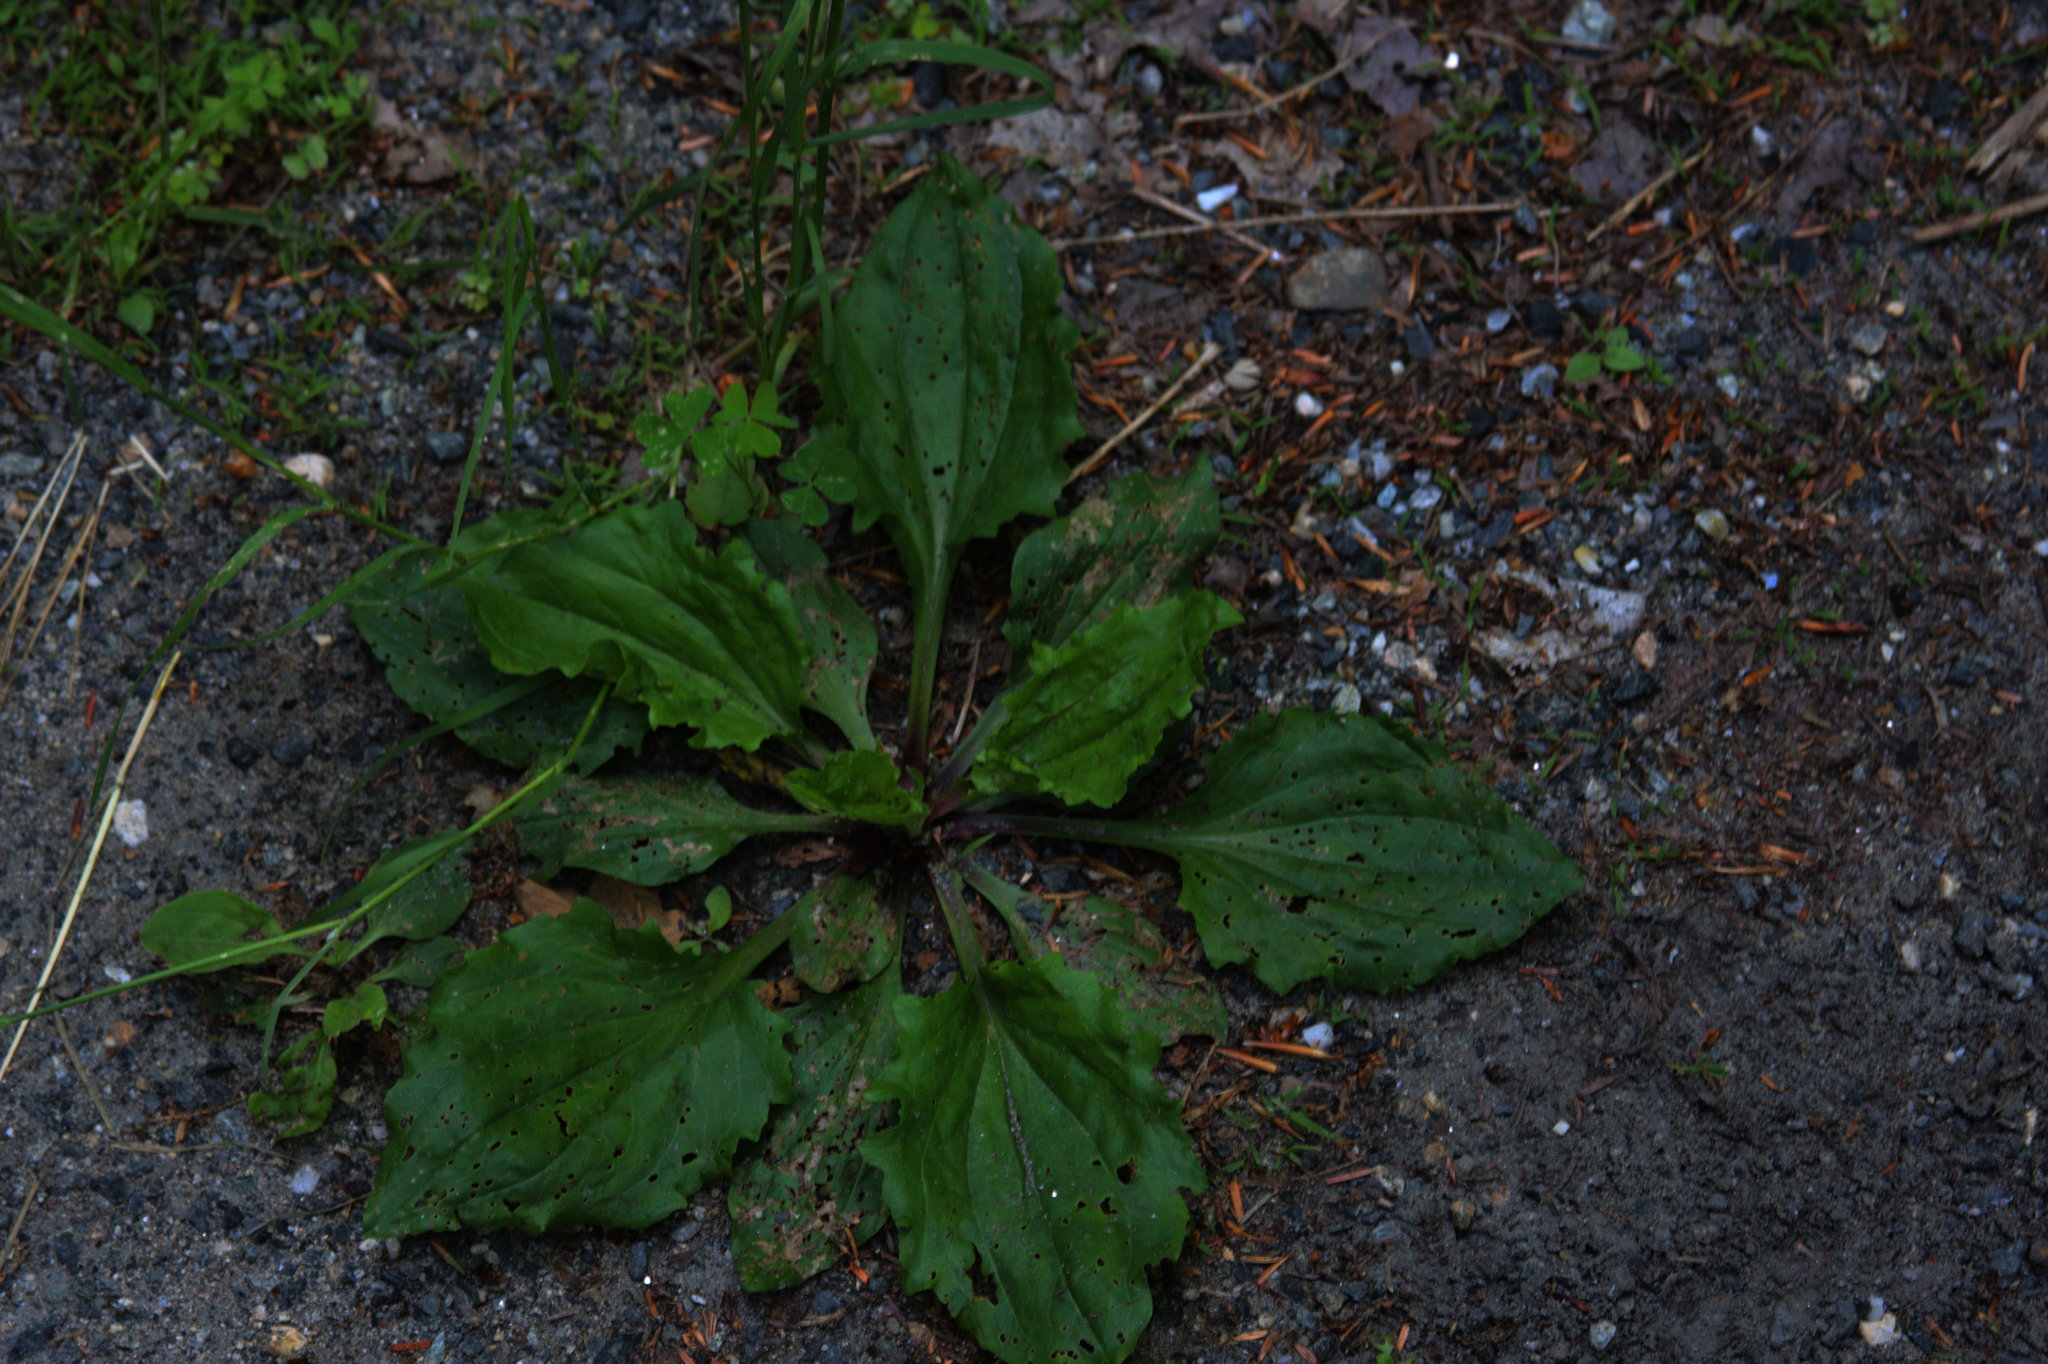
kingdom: Plantae
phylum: Tracheophyta
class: Magnoliopsida
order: Lamiales
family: Plantaginaceae
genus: Plantago
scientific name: Plantago rugelii
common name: American plantain
